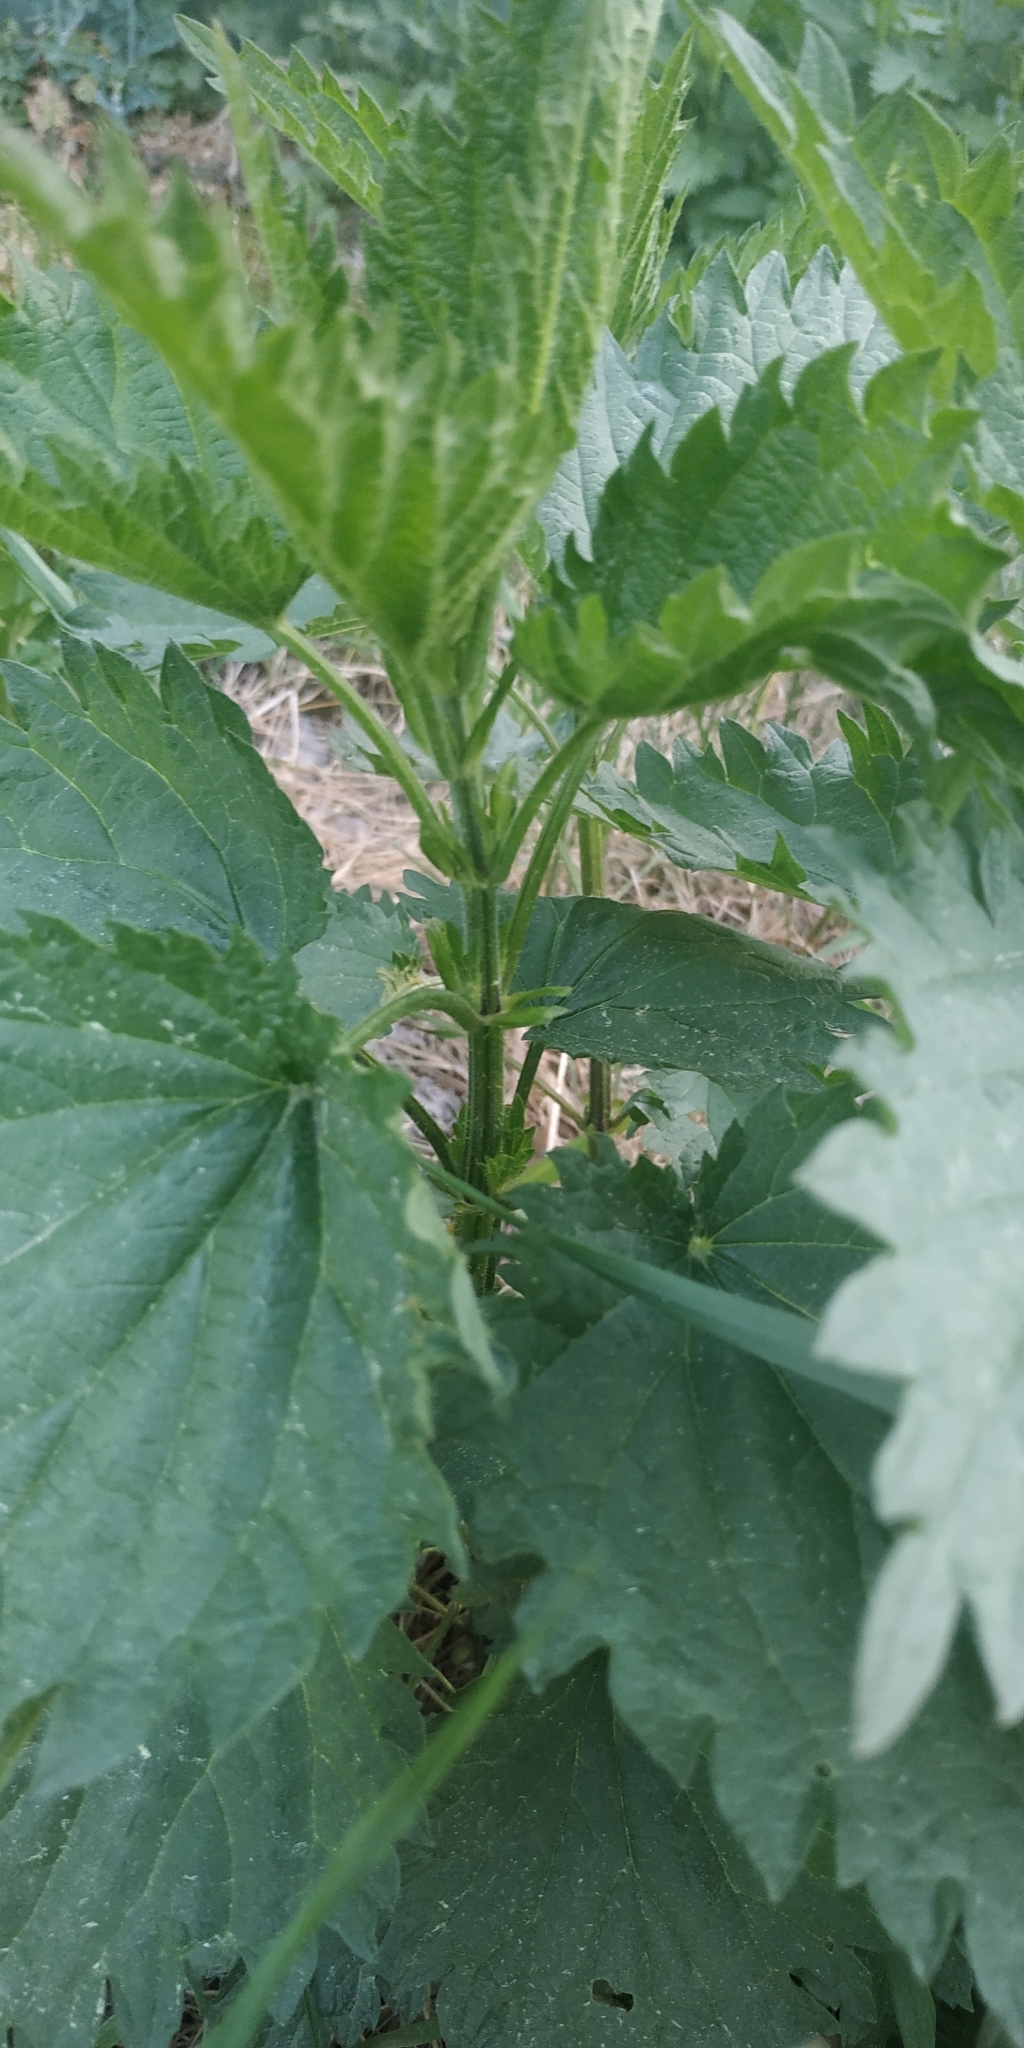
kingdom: Plantae
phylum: Tracheophyta
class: Magnoliopsida
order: Rosales
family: Urticaceae
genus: Urtica
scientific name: Urtica dioica
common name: Common nettle
